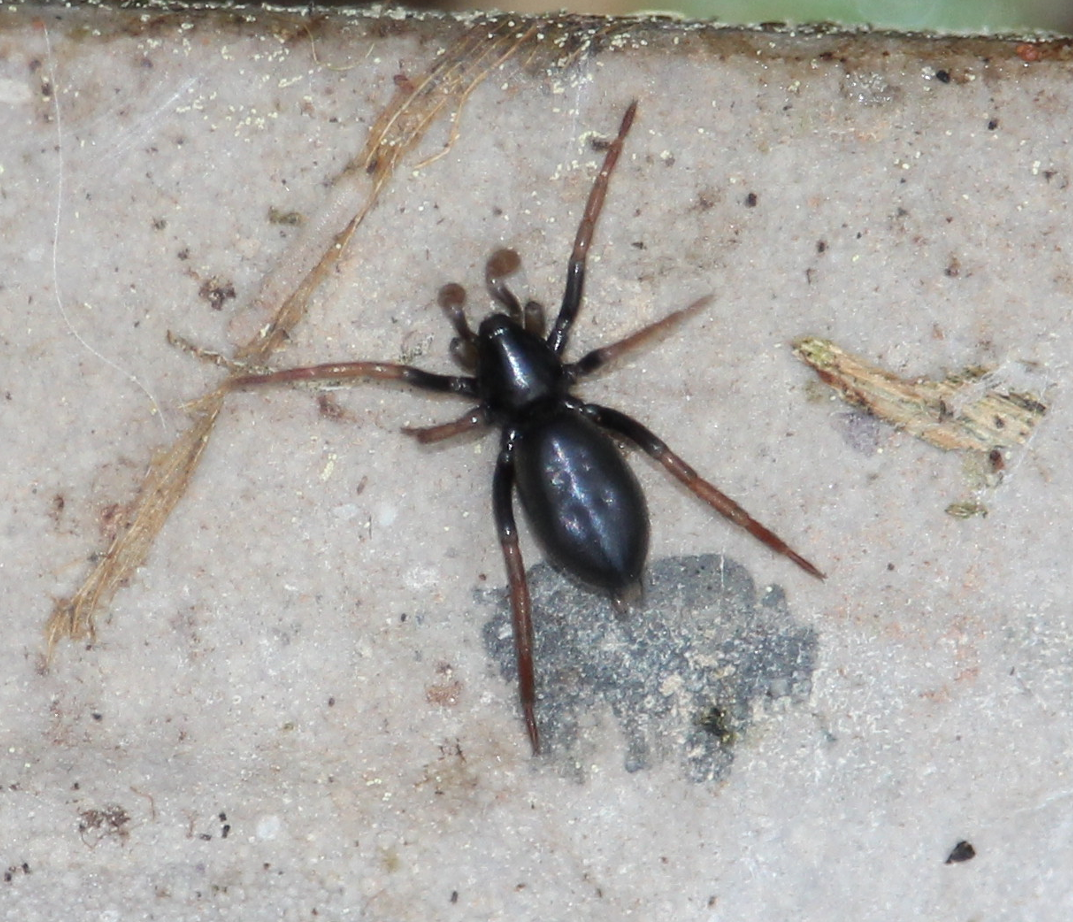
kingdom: Animalia
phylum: Arthropoda
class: Arachnida
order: Araneae
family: Gnaphosidae
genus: Trachyzelotes
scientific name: Trachyzelotes pedestris
